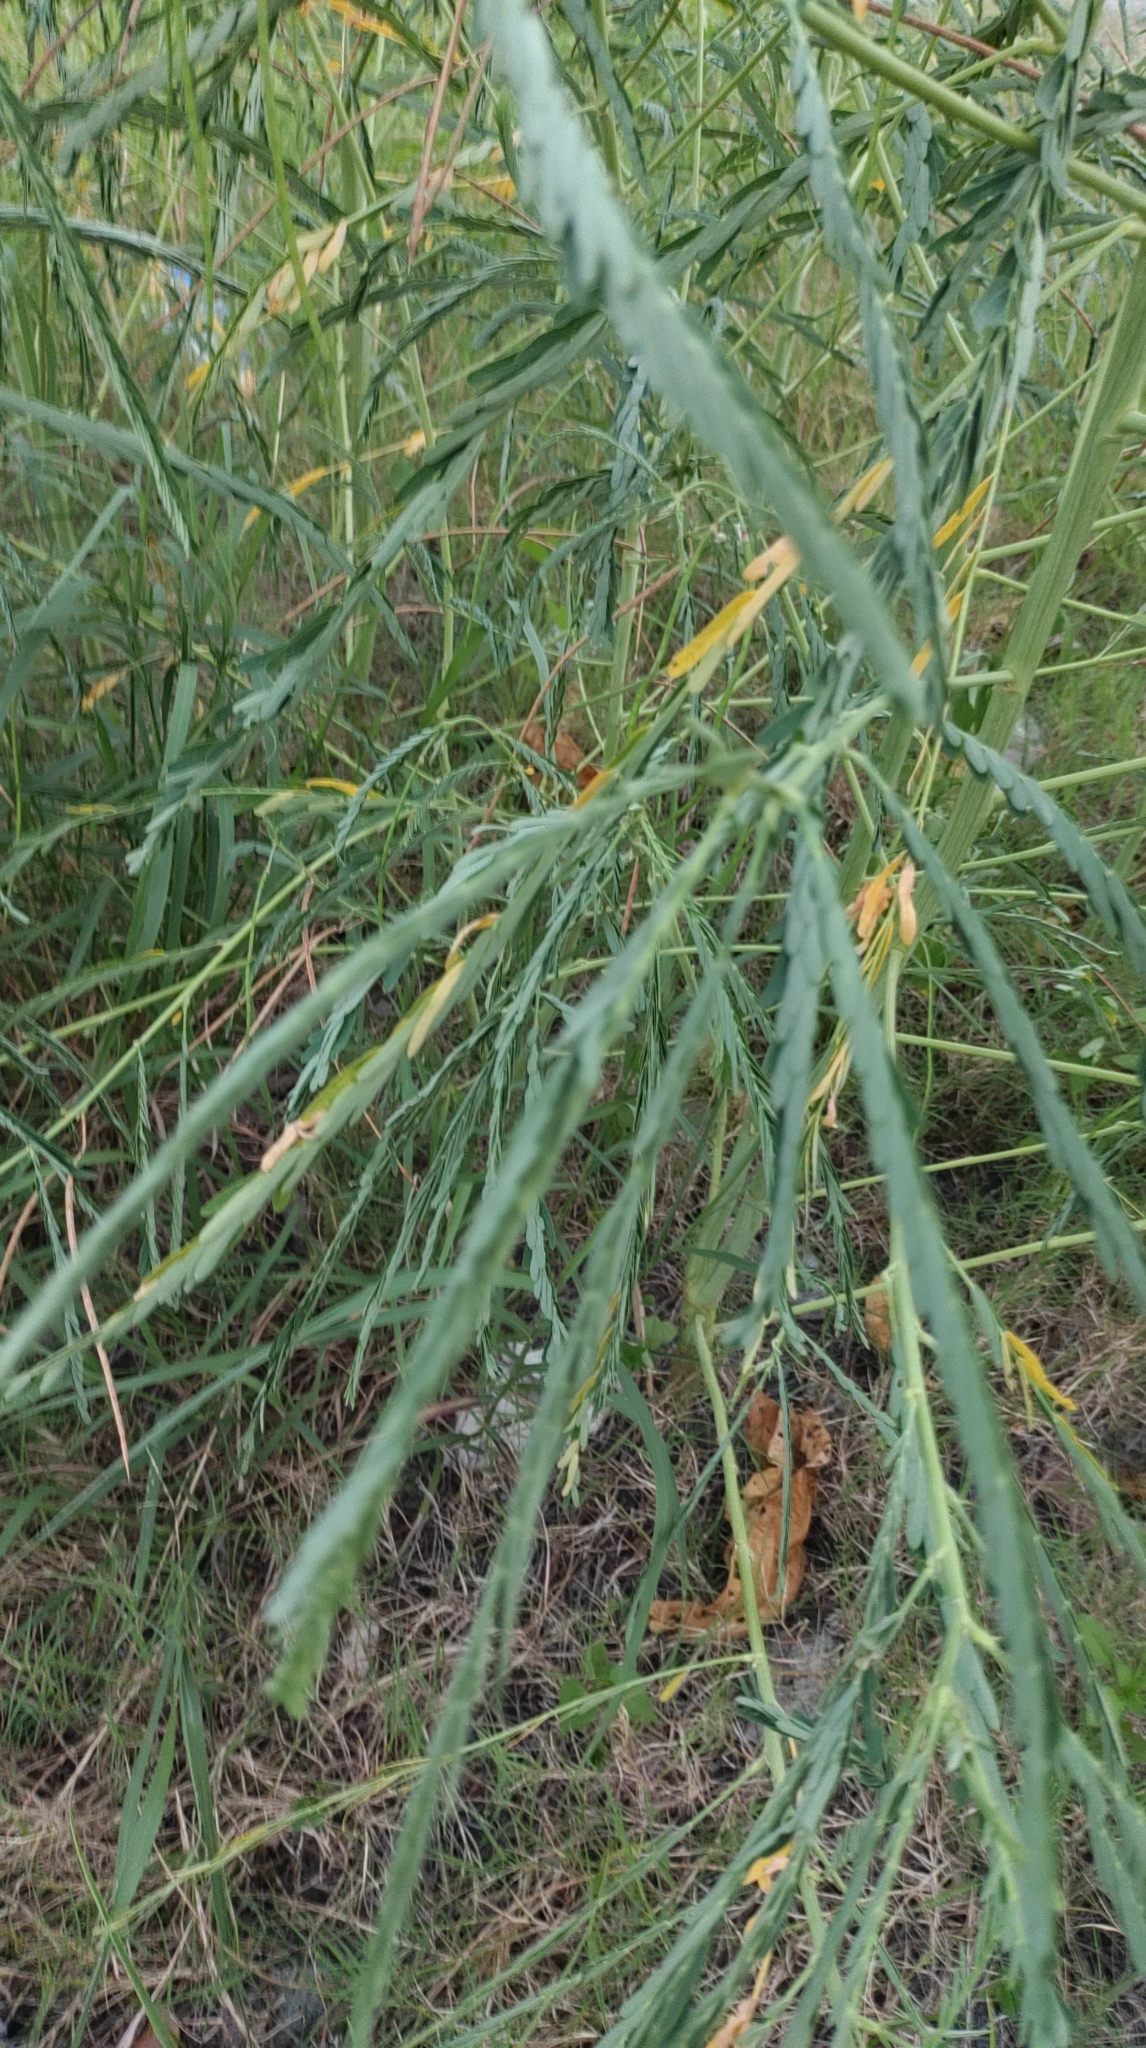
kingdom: Plantae
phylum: Tracheophyta
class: Magnoliopsida
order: Fabales
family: Fabaceae
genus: Sesbania
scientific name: Sesbania cannabina
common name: Canicha
